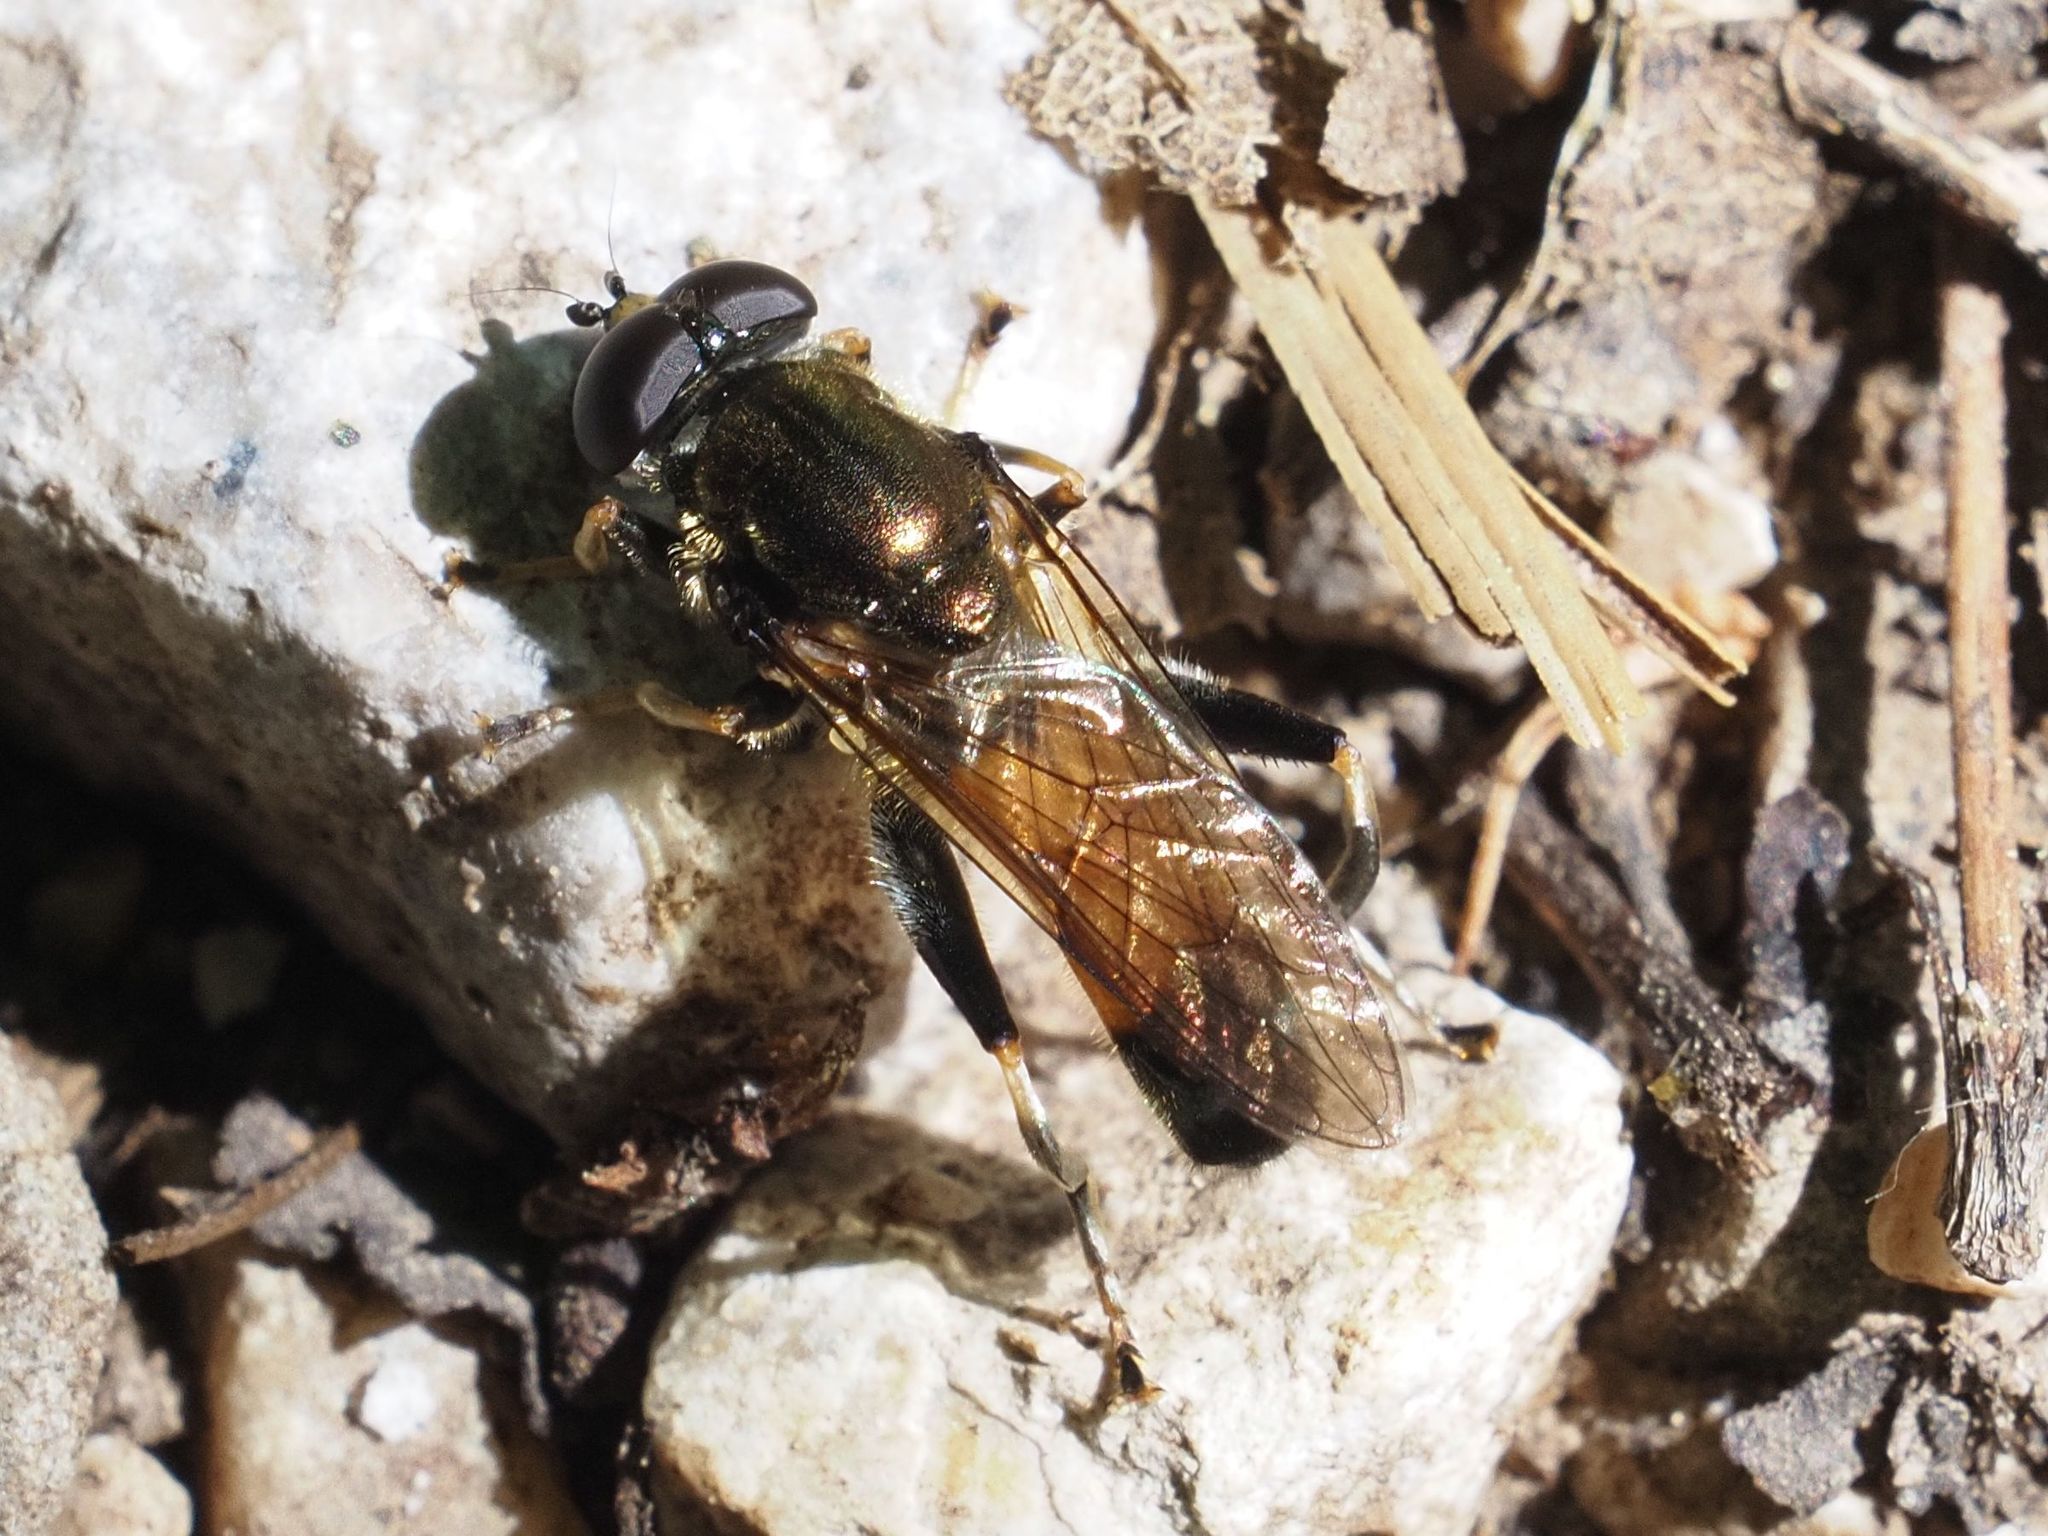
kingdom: Animalia
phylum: Arthropoda
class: Insecta
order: Diptera
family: Syrphidae
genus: Xylota
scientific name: Xylota segnis
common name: Brown-toed forest fly
